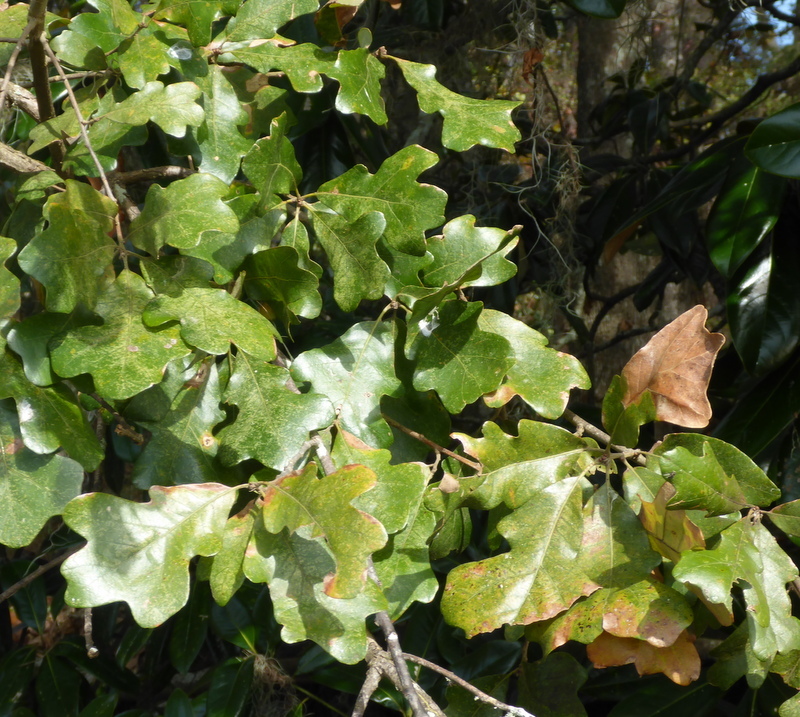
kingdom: Plantae
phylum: Tracheophyta
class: Magnoliopsida
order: Fagales
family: Fagaceae
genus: Quercus
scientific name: Quercus margaretiae
